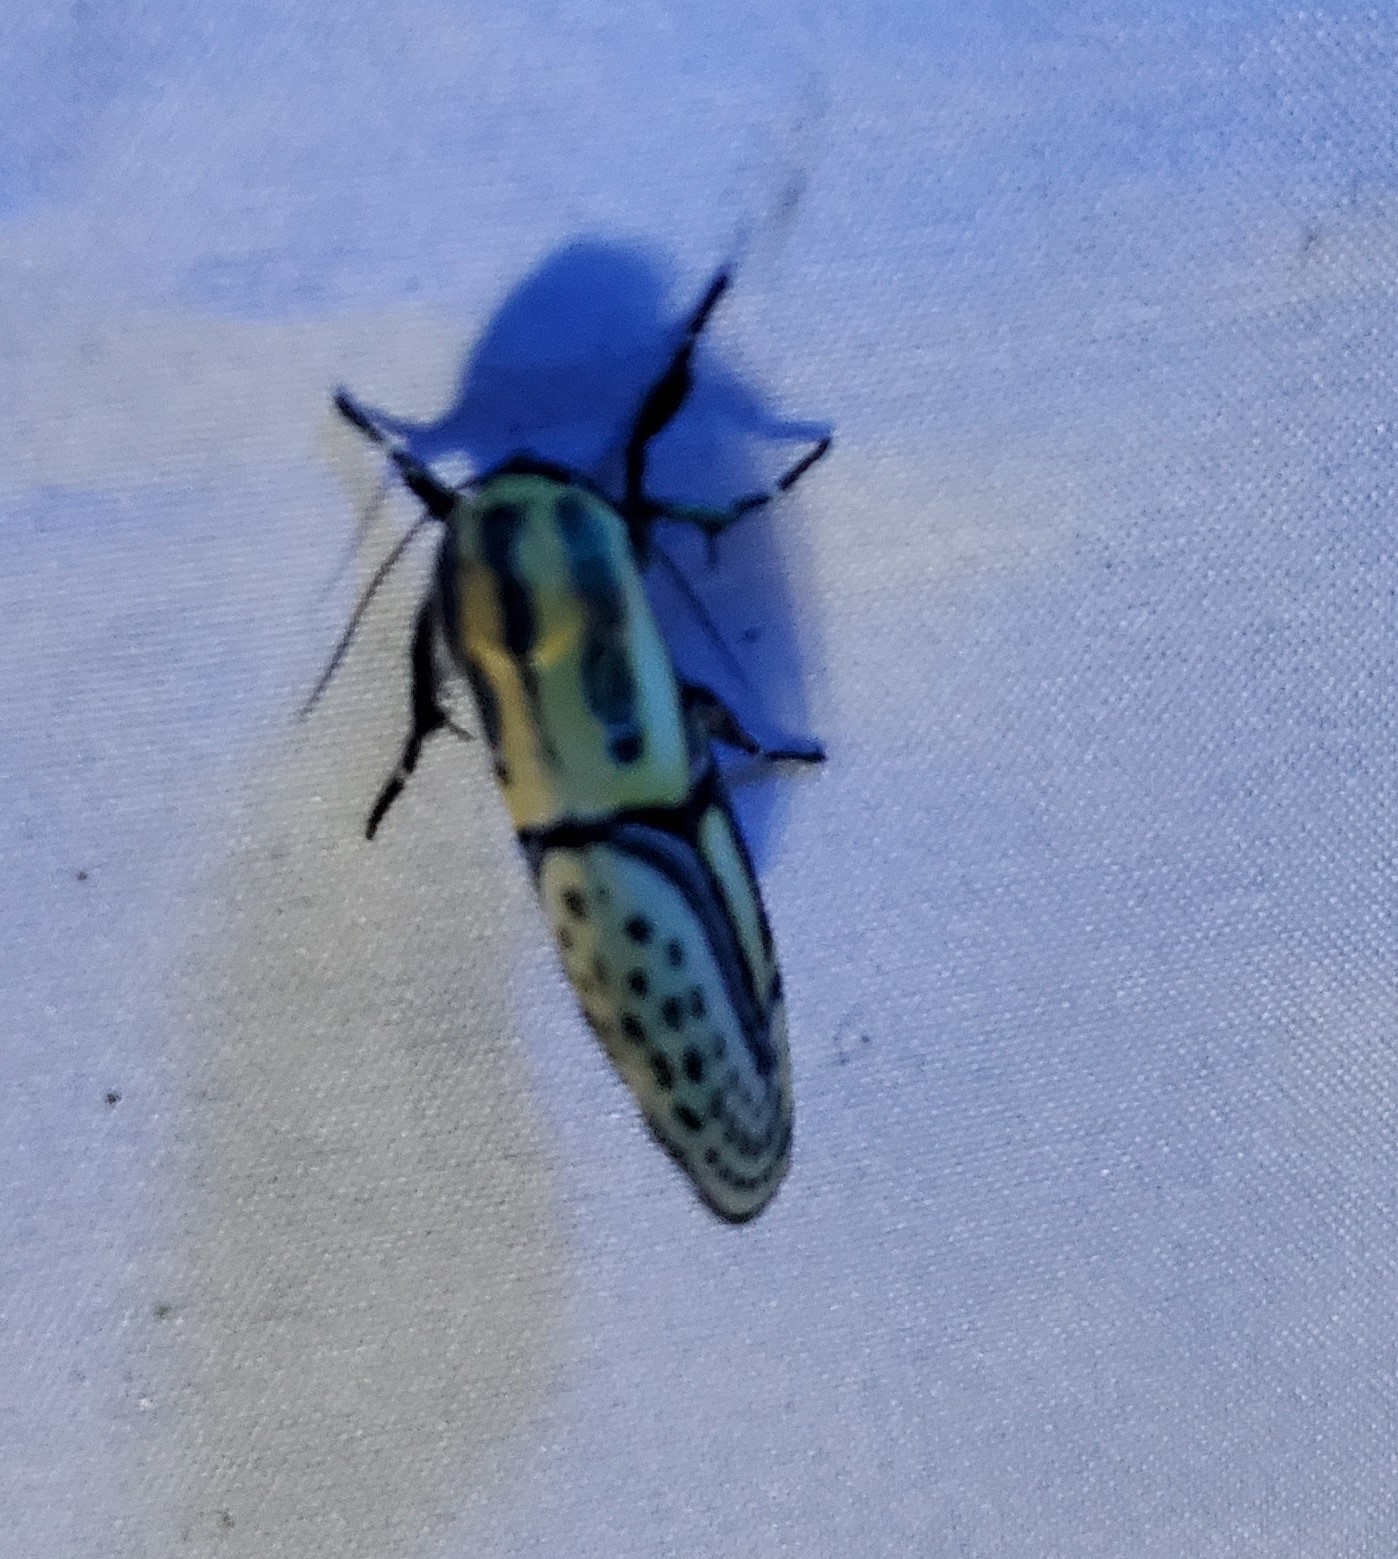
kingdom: Animalia
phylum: Arthropoda
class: Insecta
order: Lepidoptera
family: Erebidae
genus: Diphthera
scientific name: Diphthera festiva
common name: Hieroglyphic moth
